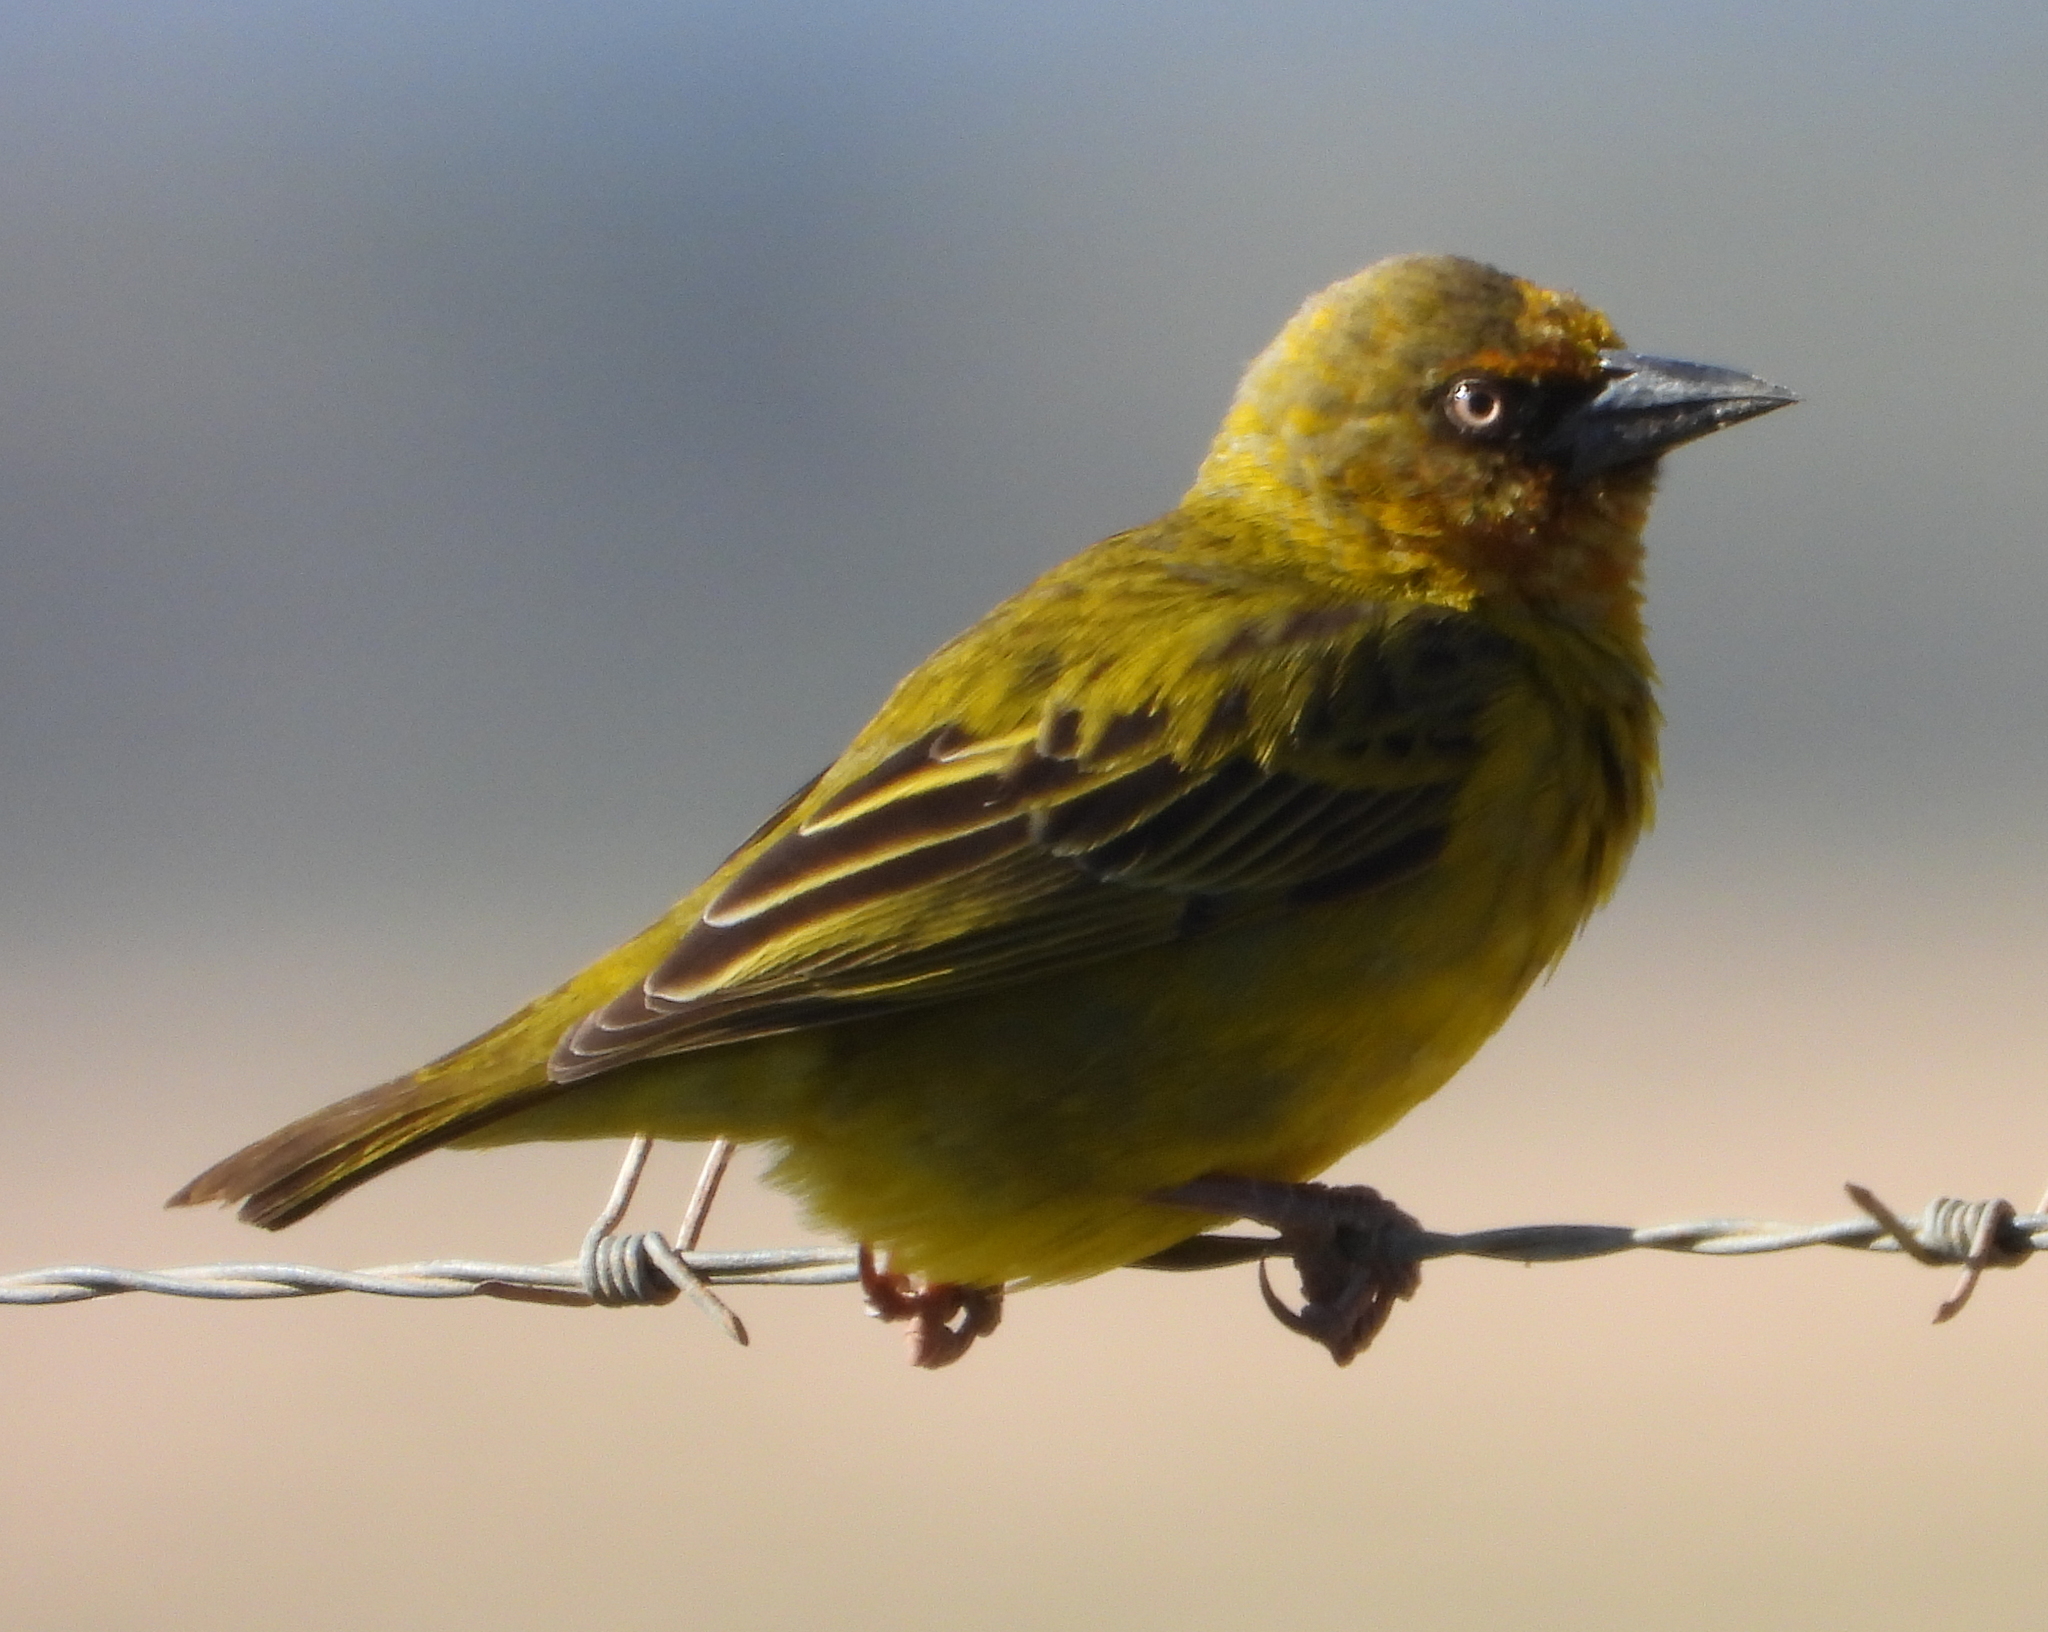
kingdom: Animalia
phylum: Chordata
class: Aves
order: Passeriformes
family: Ploceidae
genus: Ploceus
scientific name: Ploceus capensis
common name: Cape weaver
